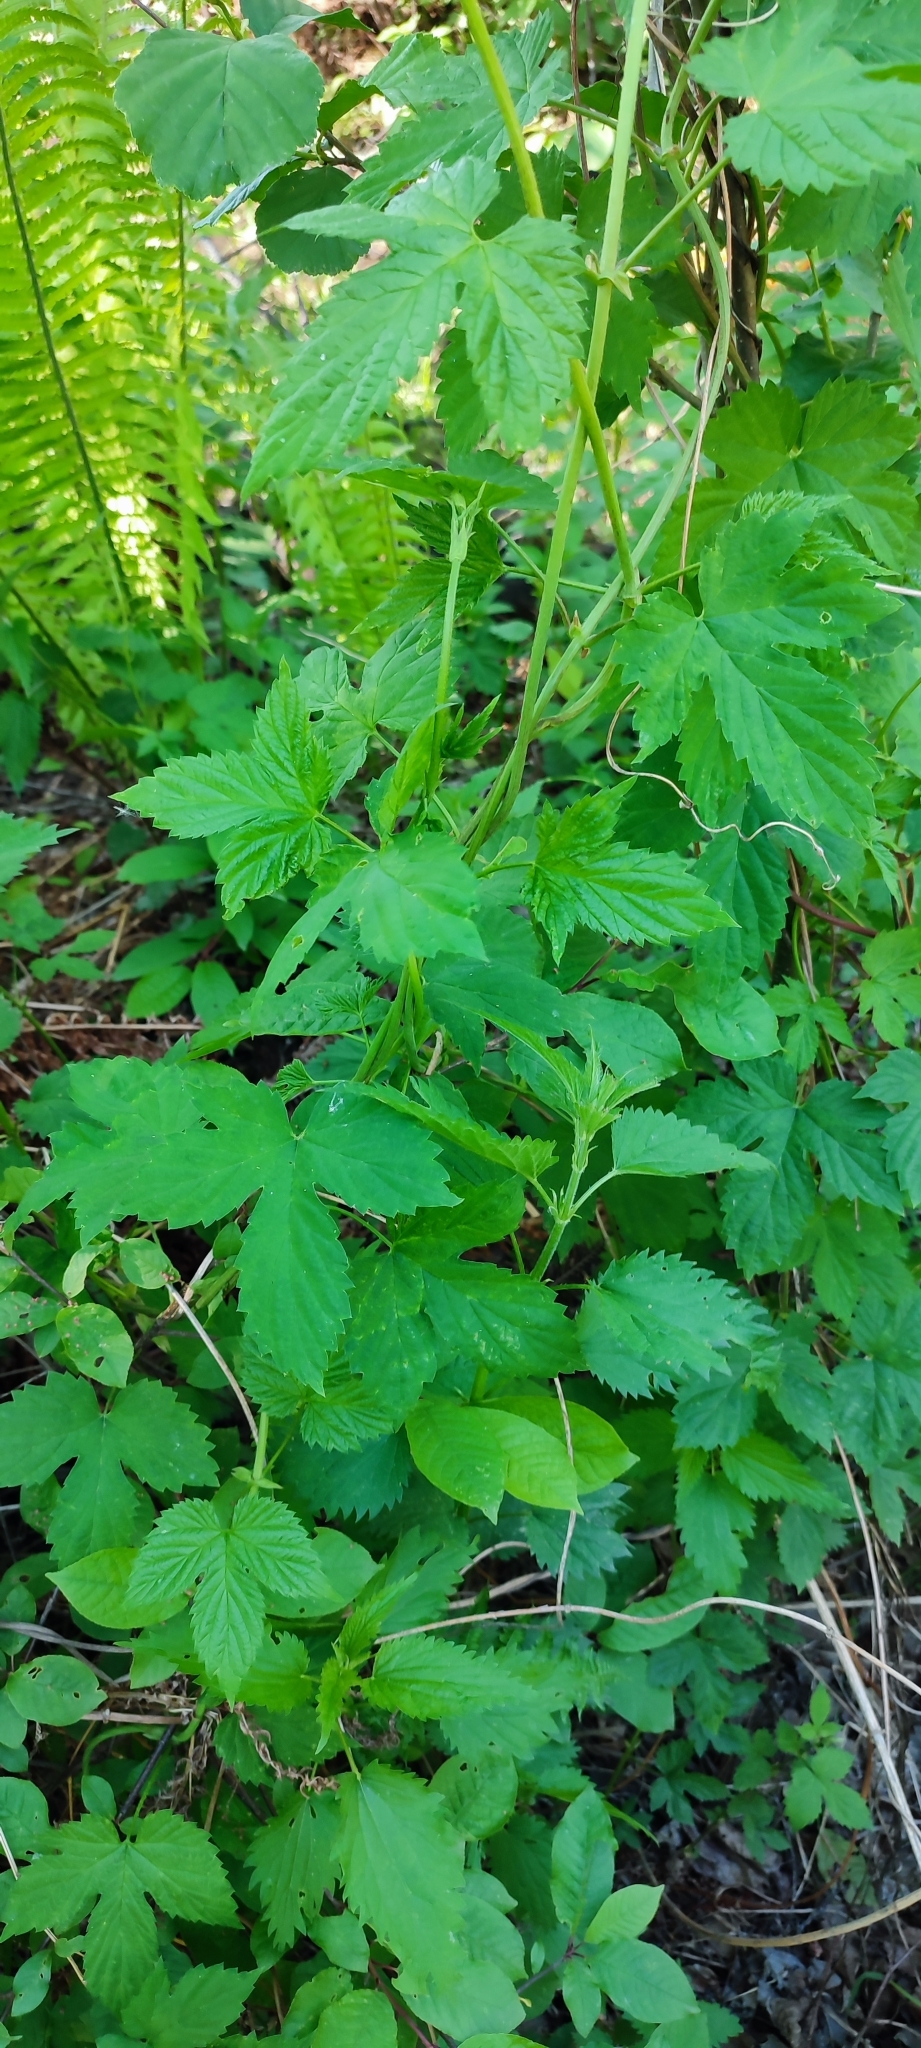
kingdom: Plantae
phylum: Tracheophyta
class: Magnoliopsida
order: Rosales
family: Cannabaceae
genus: Humulus
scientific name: Humulus lupulus
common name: Hop
